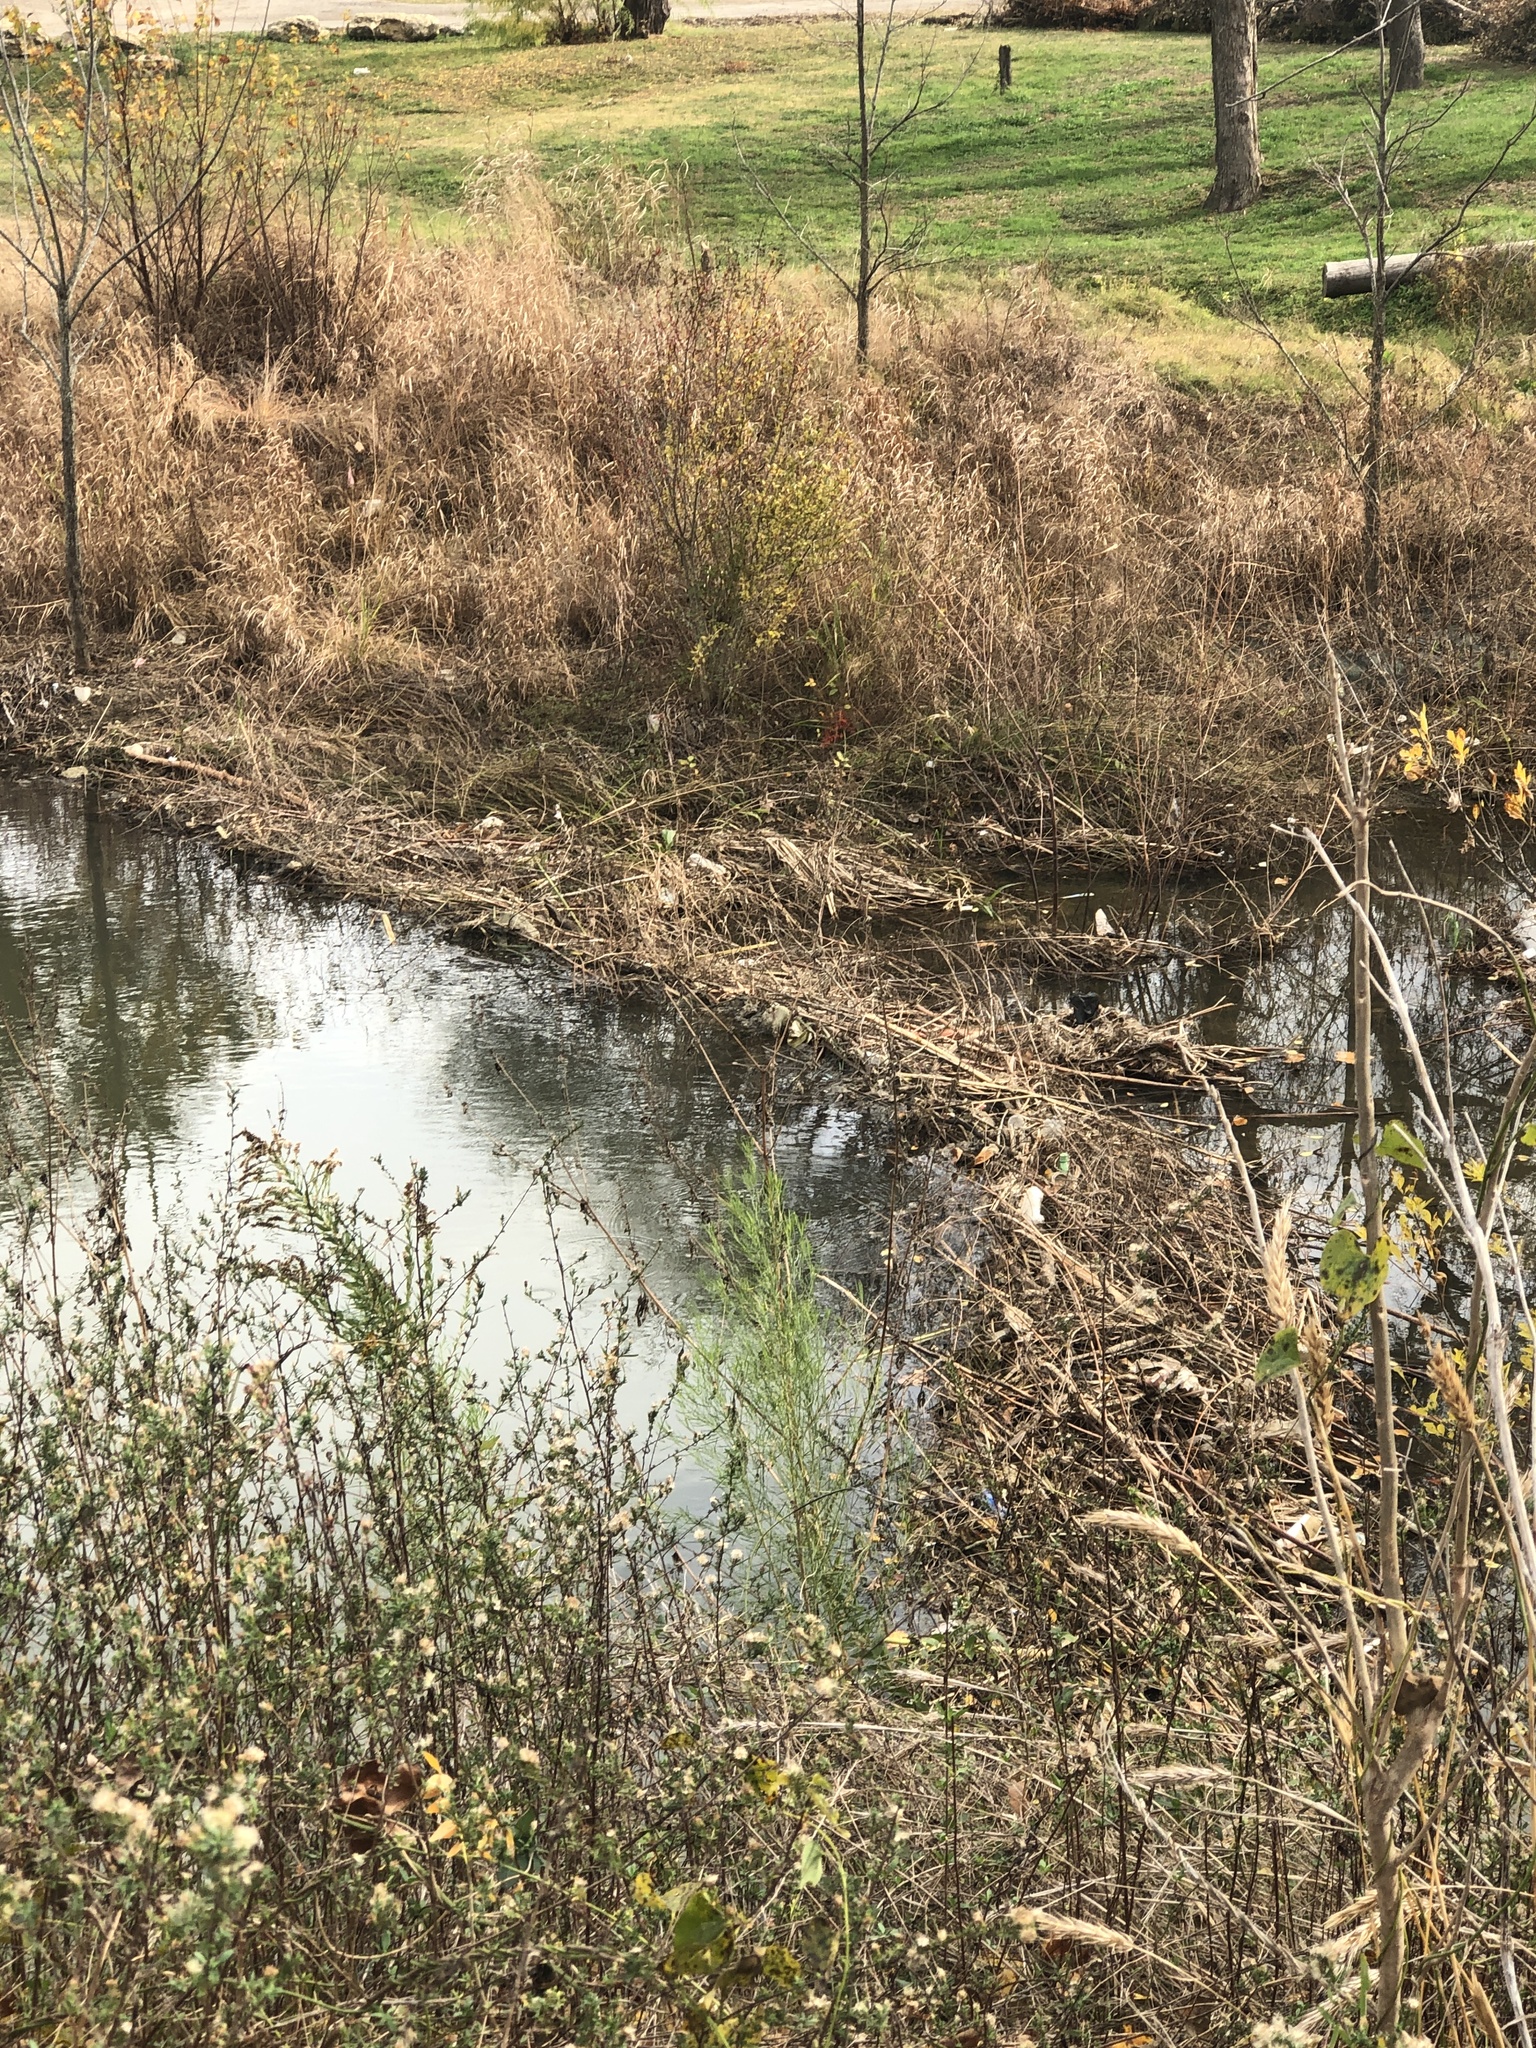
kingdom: Animalia
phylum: Chordata
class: Mammalia
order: Rodentia
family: Castoridae
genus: Castor
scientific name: Castor canadensis
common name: American beaver
